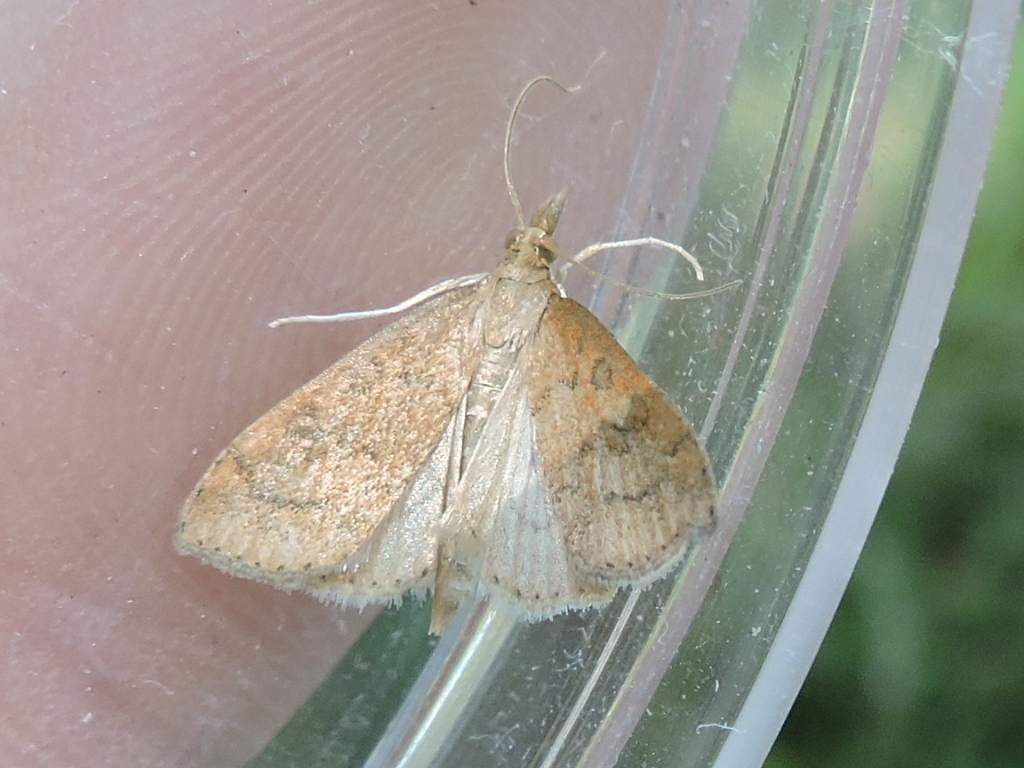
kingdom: Animalia
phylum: Arthropoda
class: Insecta
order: Lepidoptera
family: Crambidae
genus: Udea
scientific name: Udea rubigalis
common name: Celery leaftier moth
